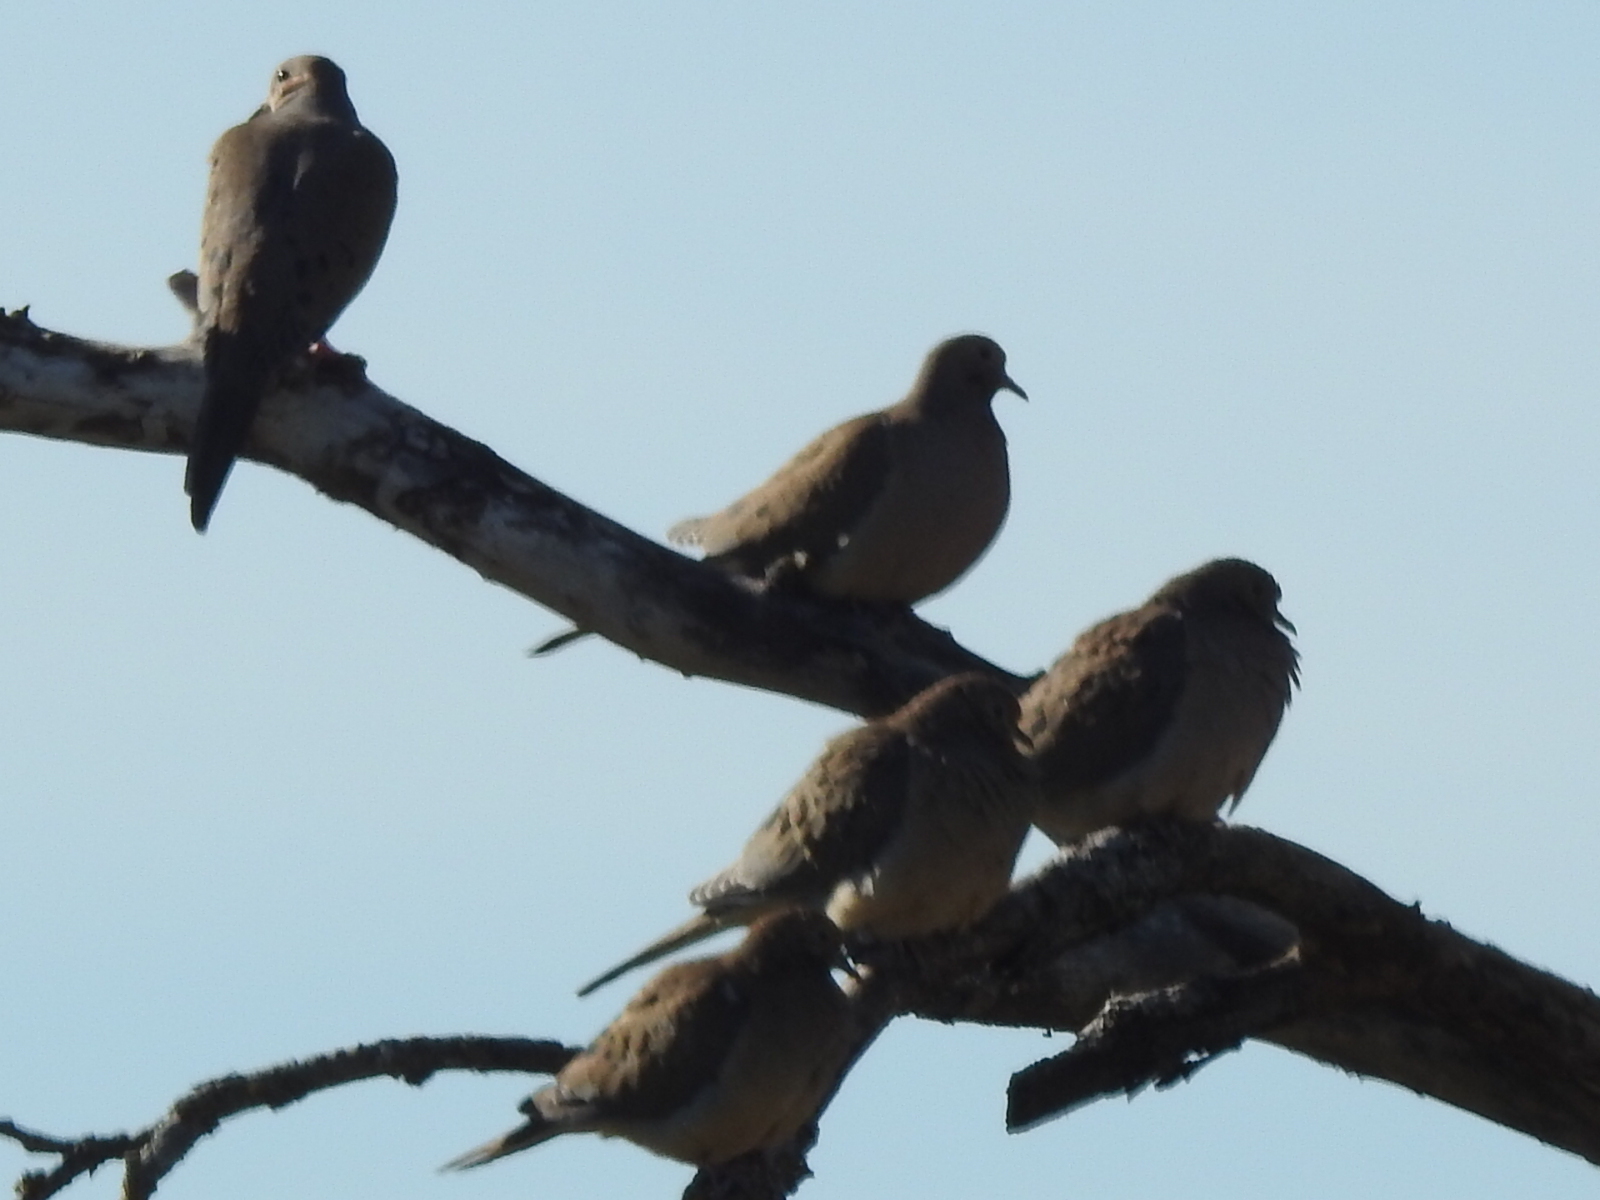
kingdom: Animalia
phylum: Chordata
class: Aves
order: Columbiformes
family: Columbidae
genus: Zenaida
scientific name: Zenaida macroura
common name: Mourning dove
